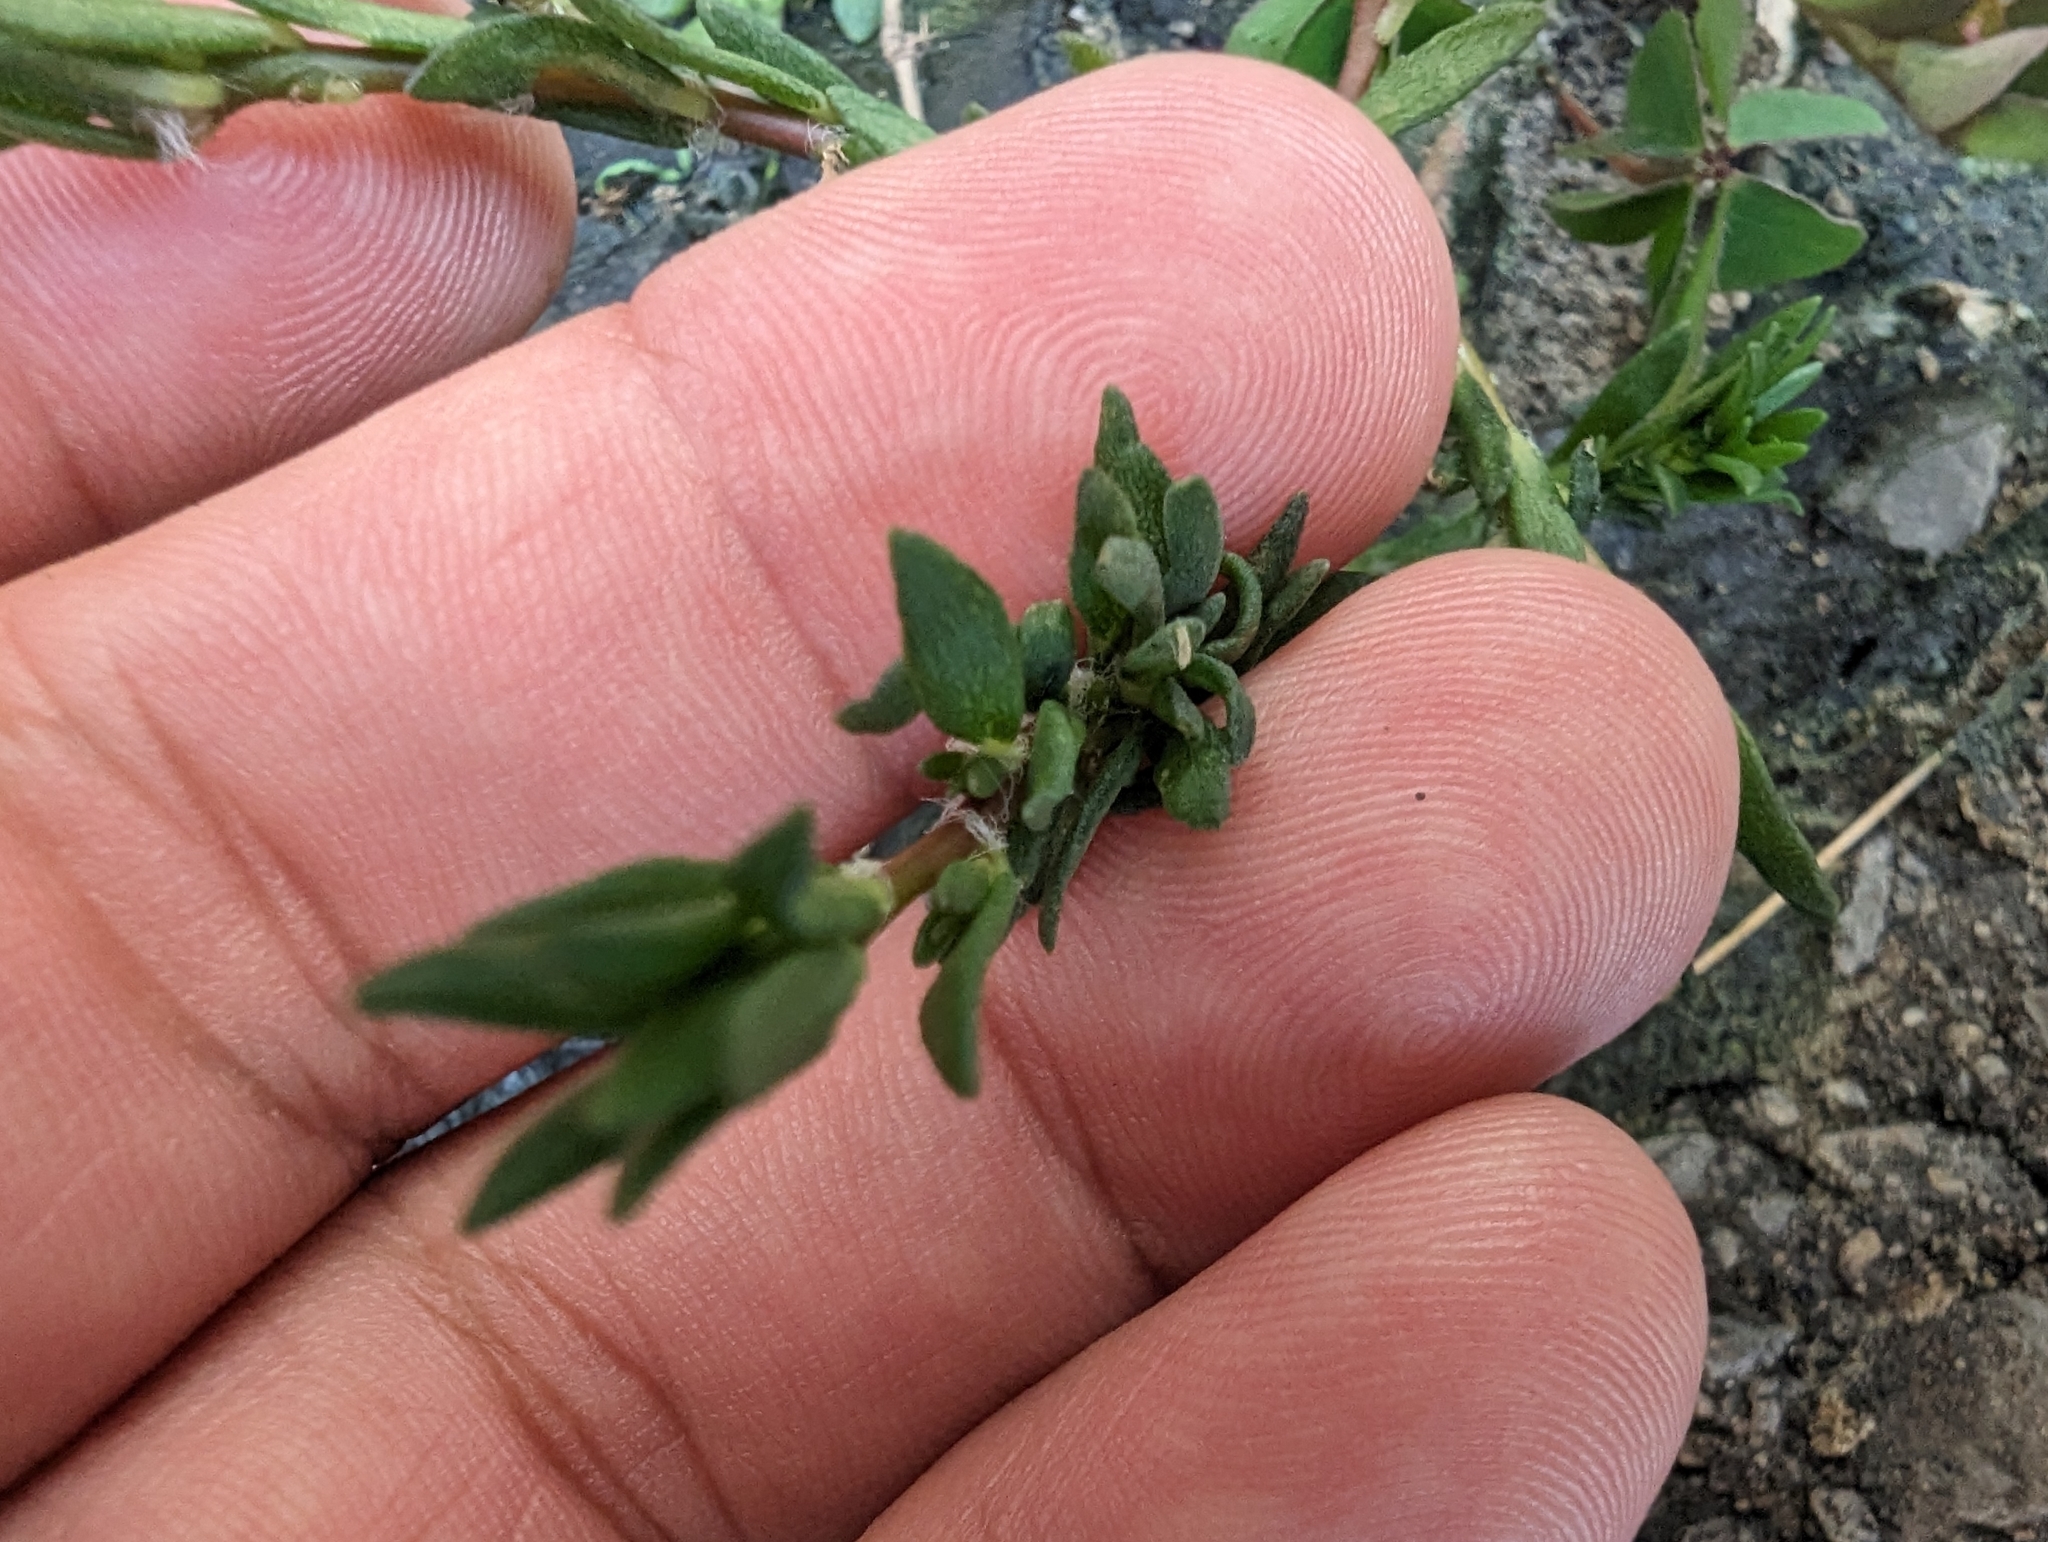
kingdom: Plantae
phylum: Tracheophyta
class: Magnoliopsida
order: Caryophyllales
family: Portulacaceae
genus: Portulaca
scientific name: Portulaca pilosa
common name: Kiss me quick
